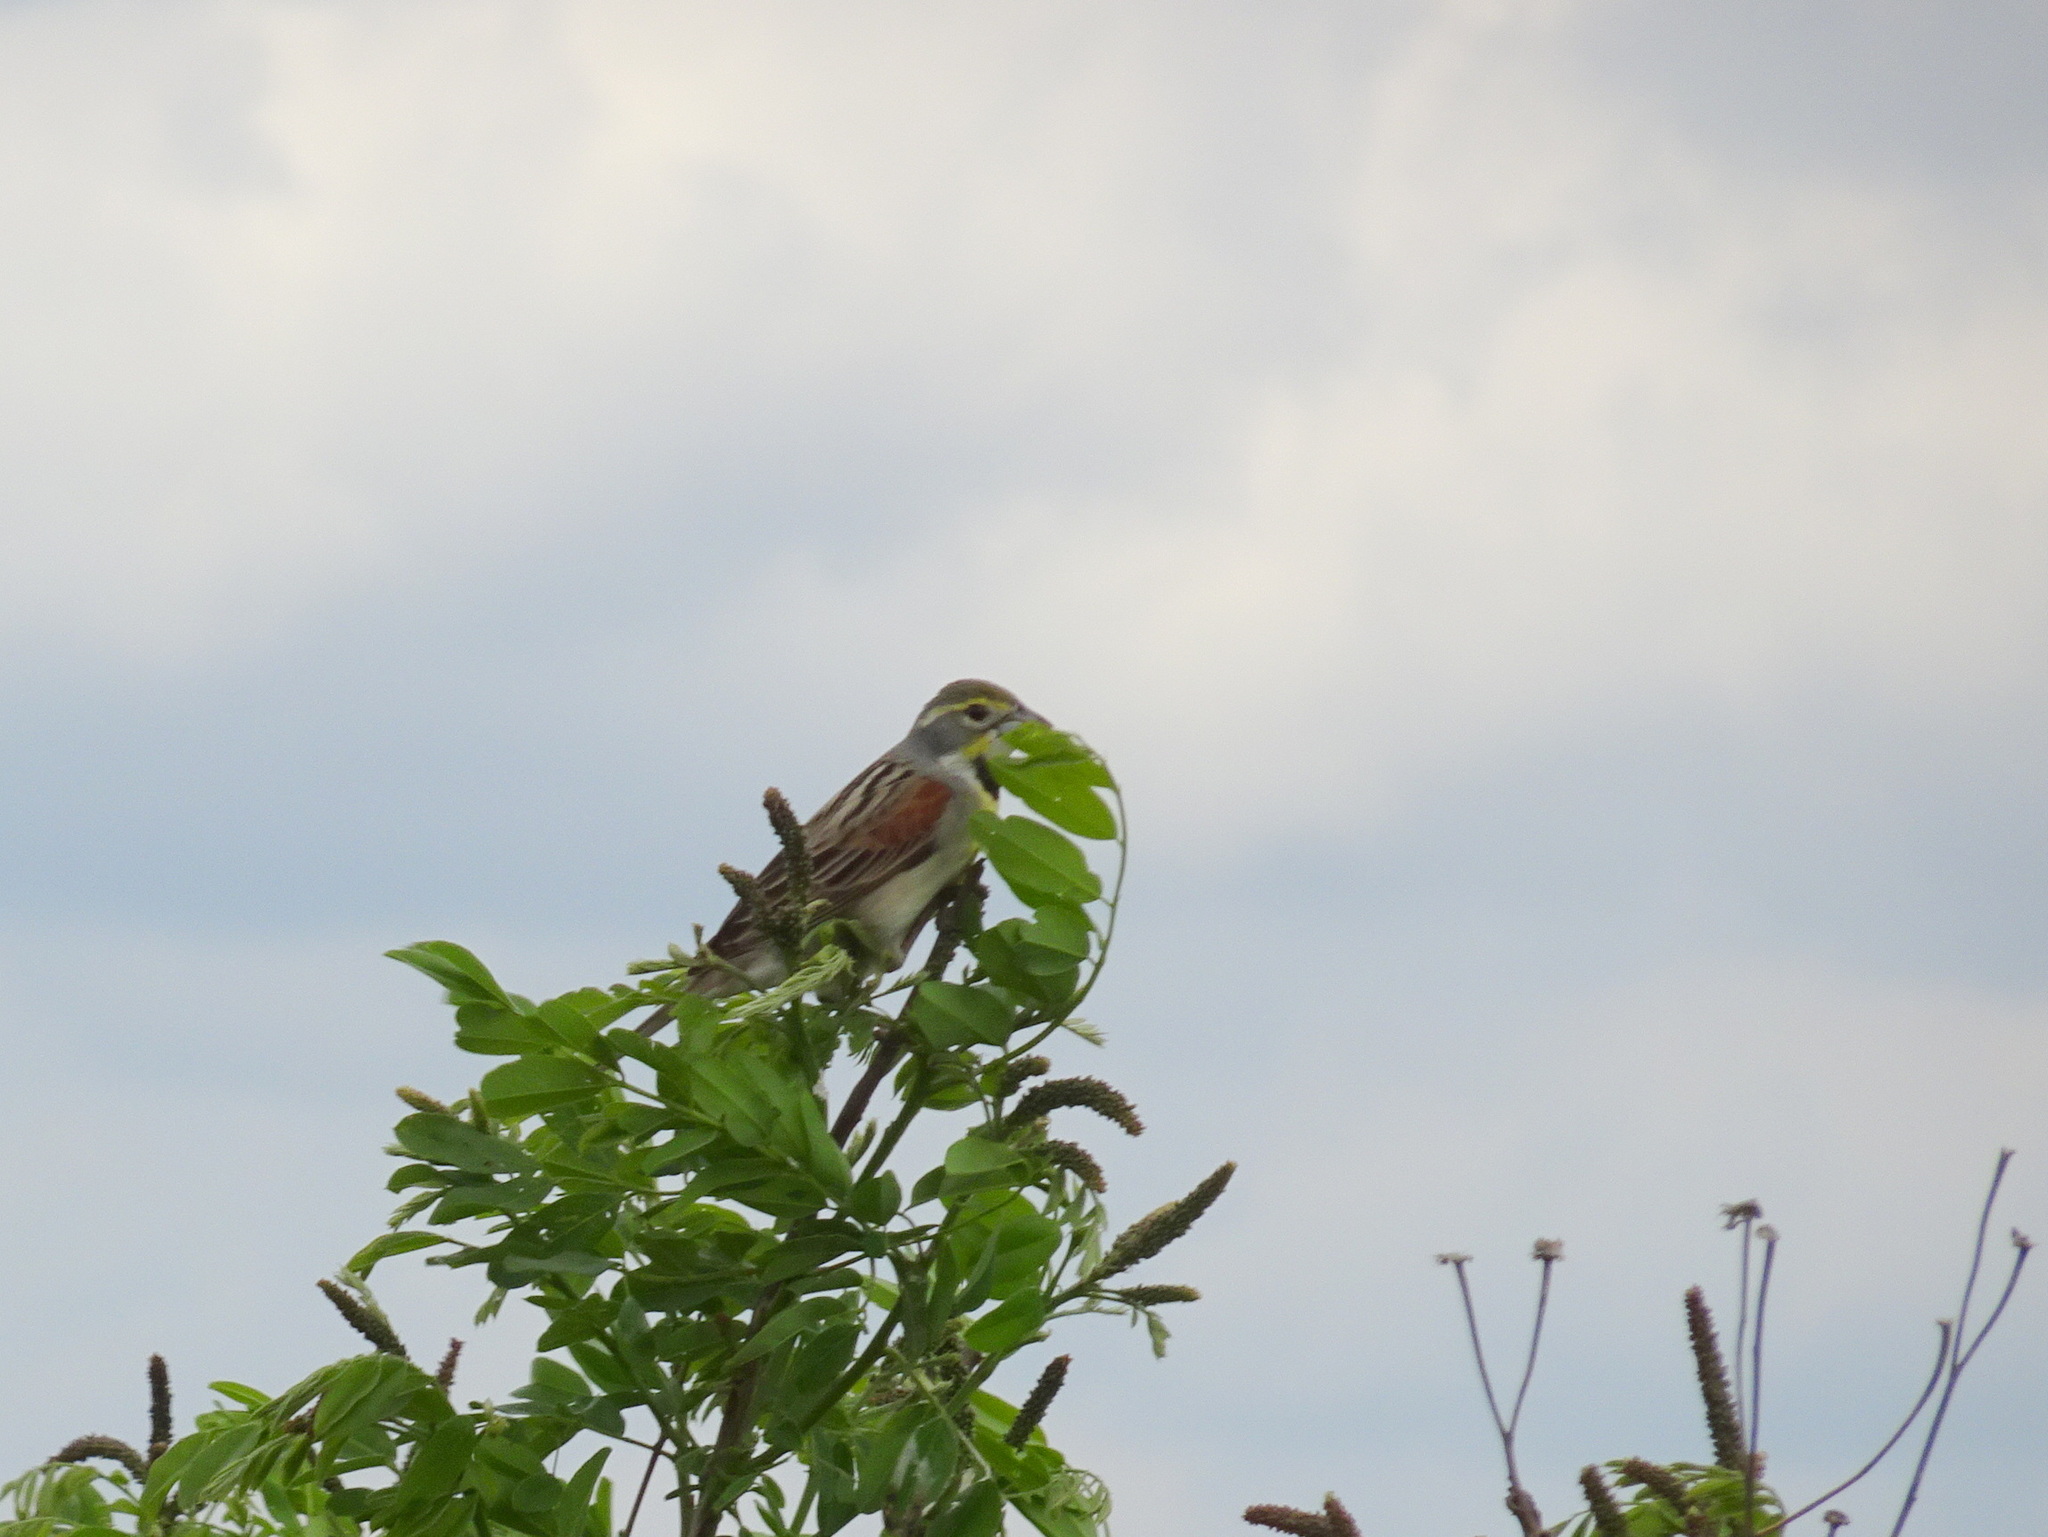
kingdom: Animalia
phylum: Chordata
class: Aves
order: Passeriformes
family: Cardinalidae
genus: Spiza
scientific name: Spiza americana
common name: Dickcissel
